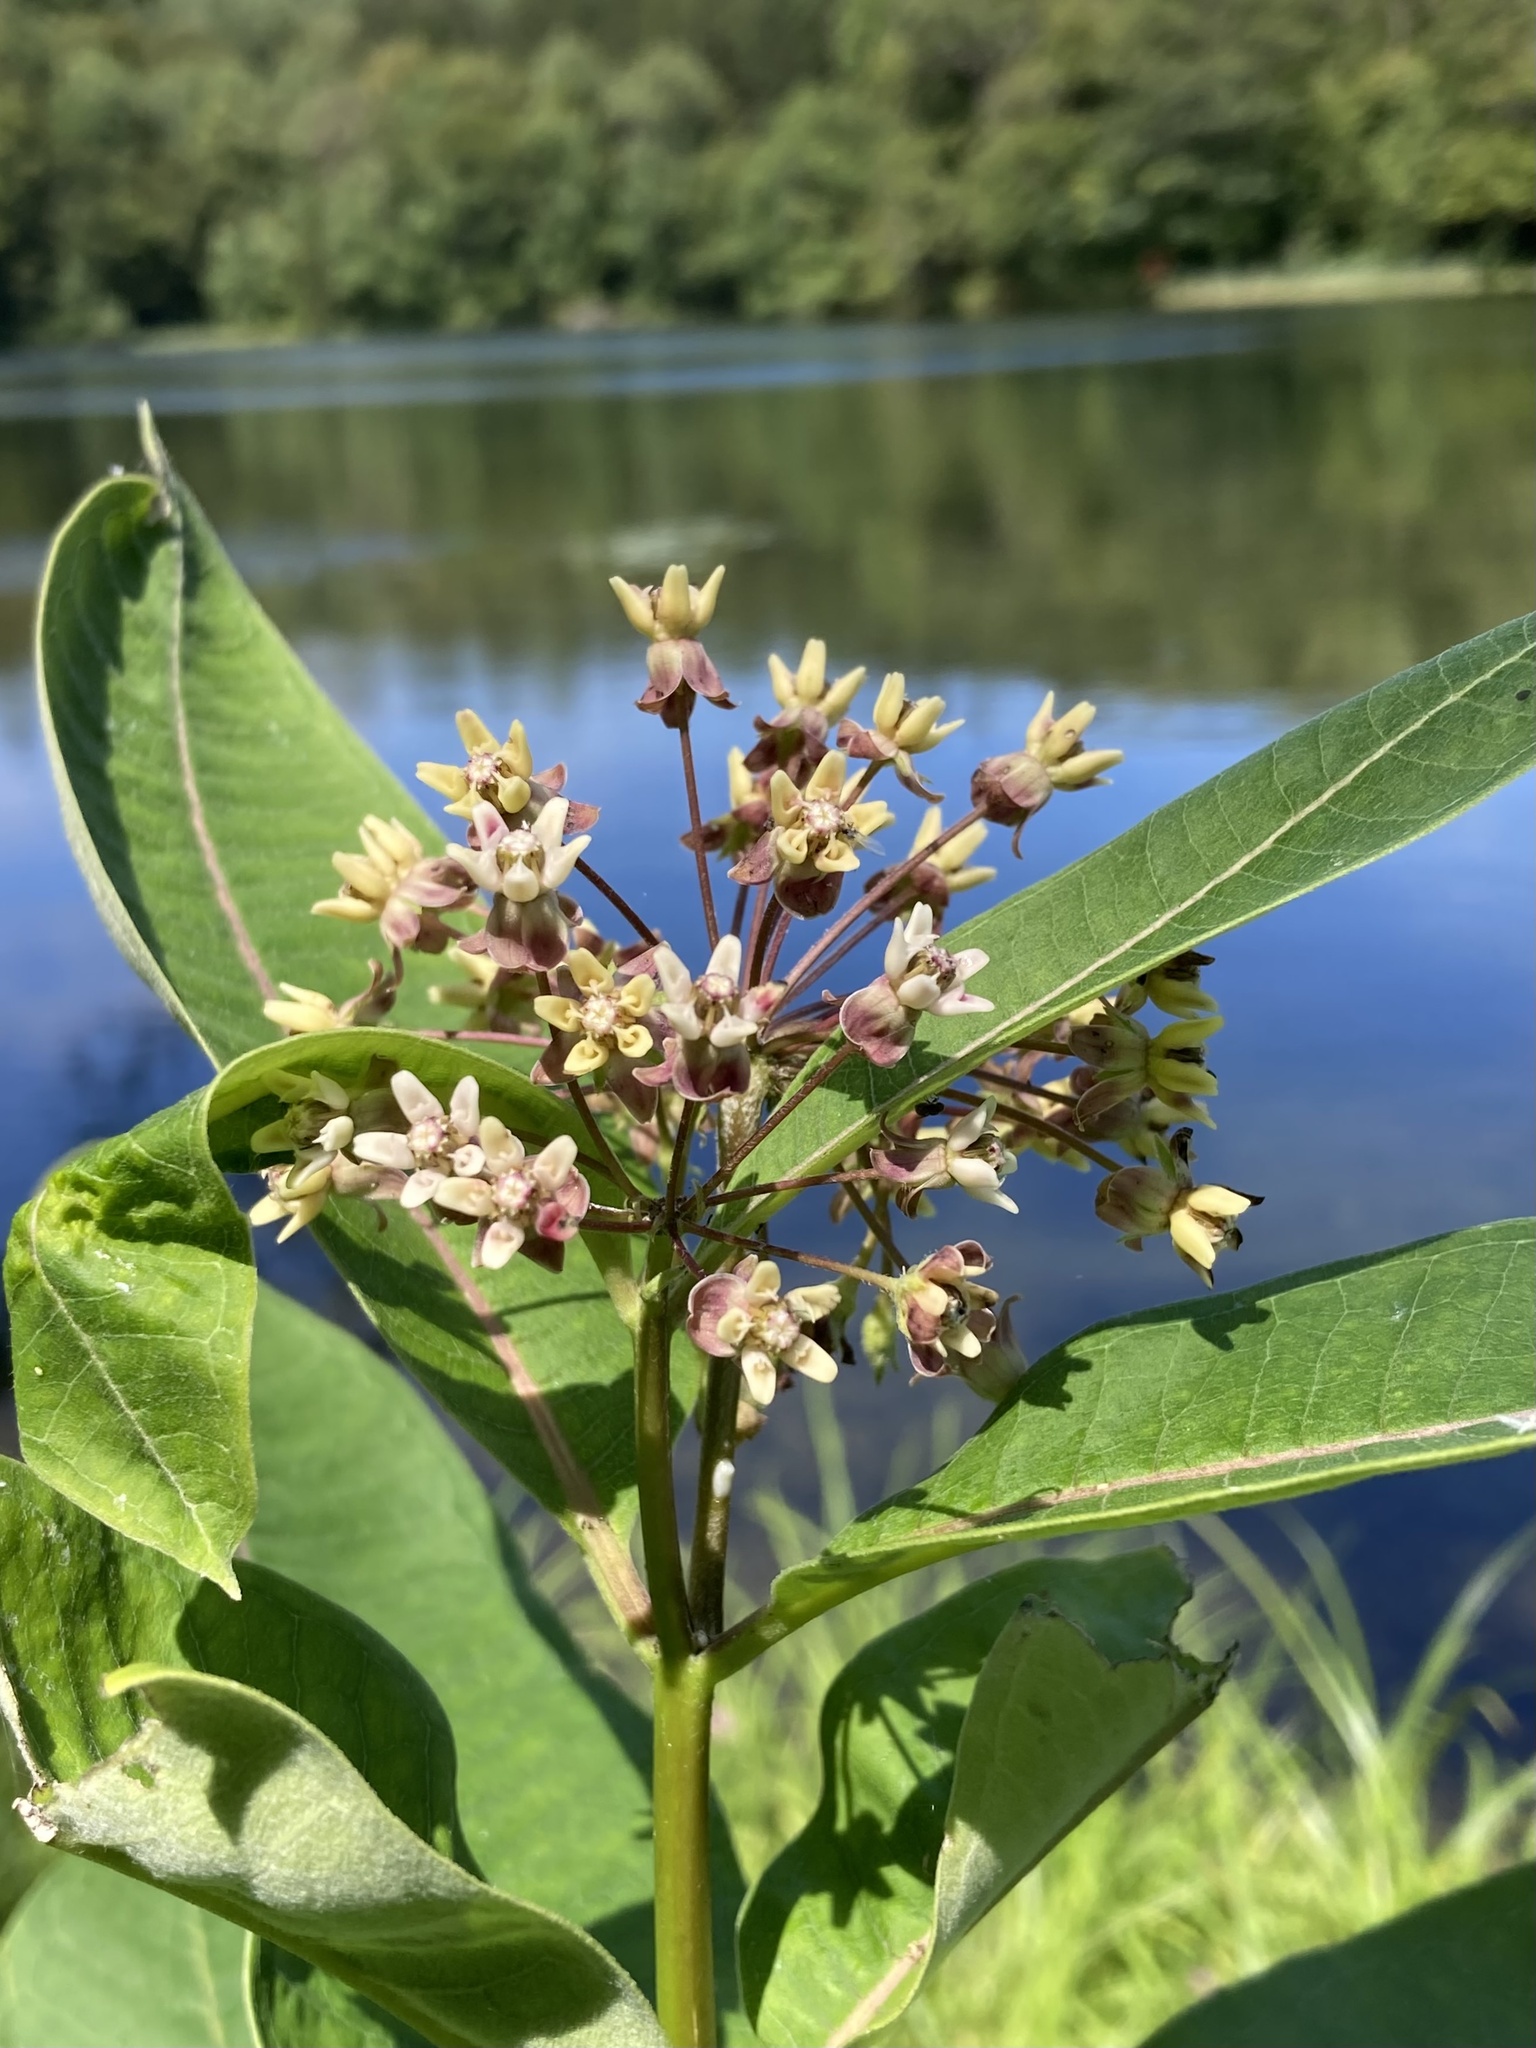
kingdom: Plantae
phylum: Tracheophyta
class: Magnoliopsida
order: Gentianales
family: Apocynaceae
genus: Asclepias
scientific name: Asclepias syriaca
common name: Common milkweed
